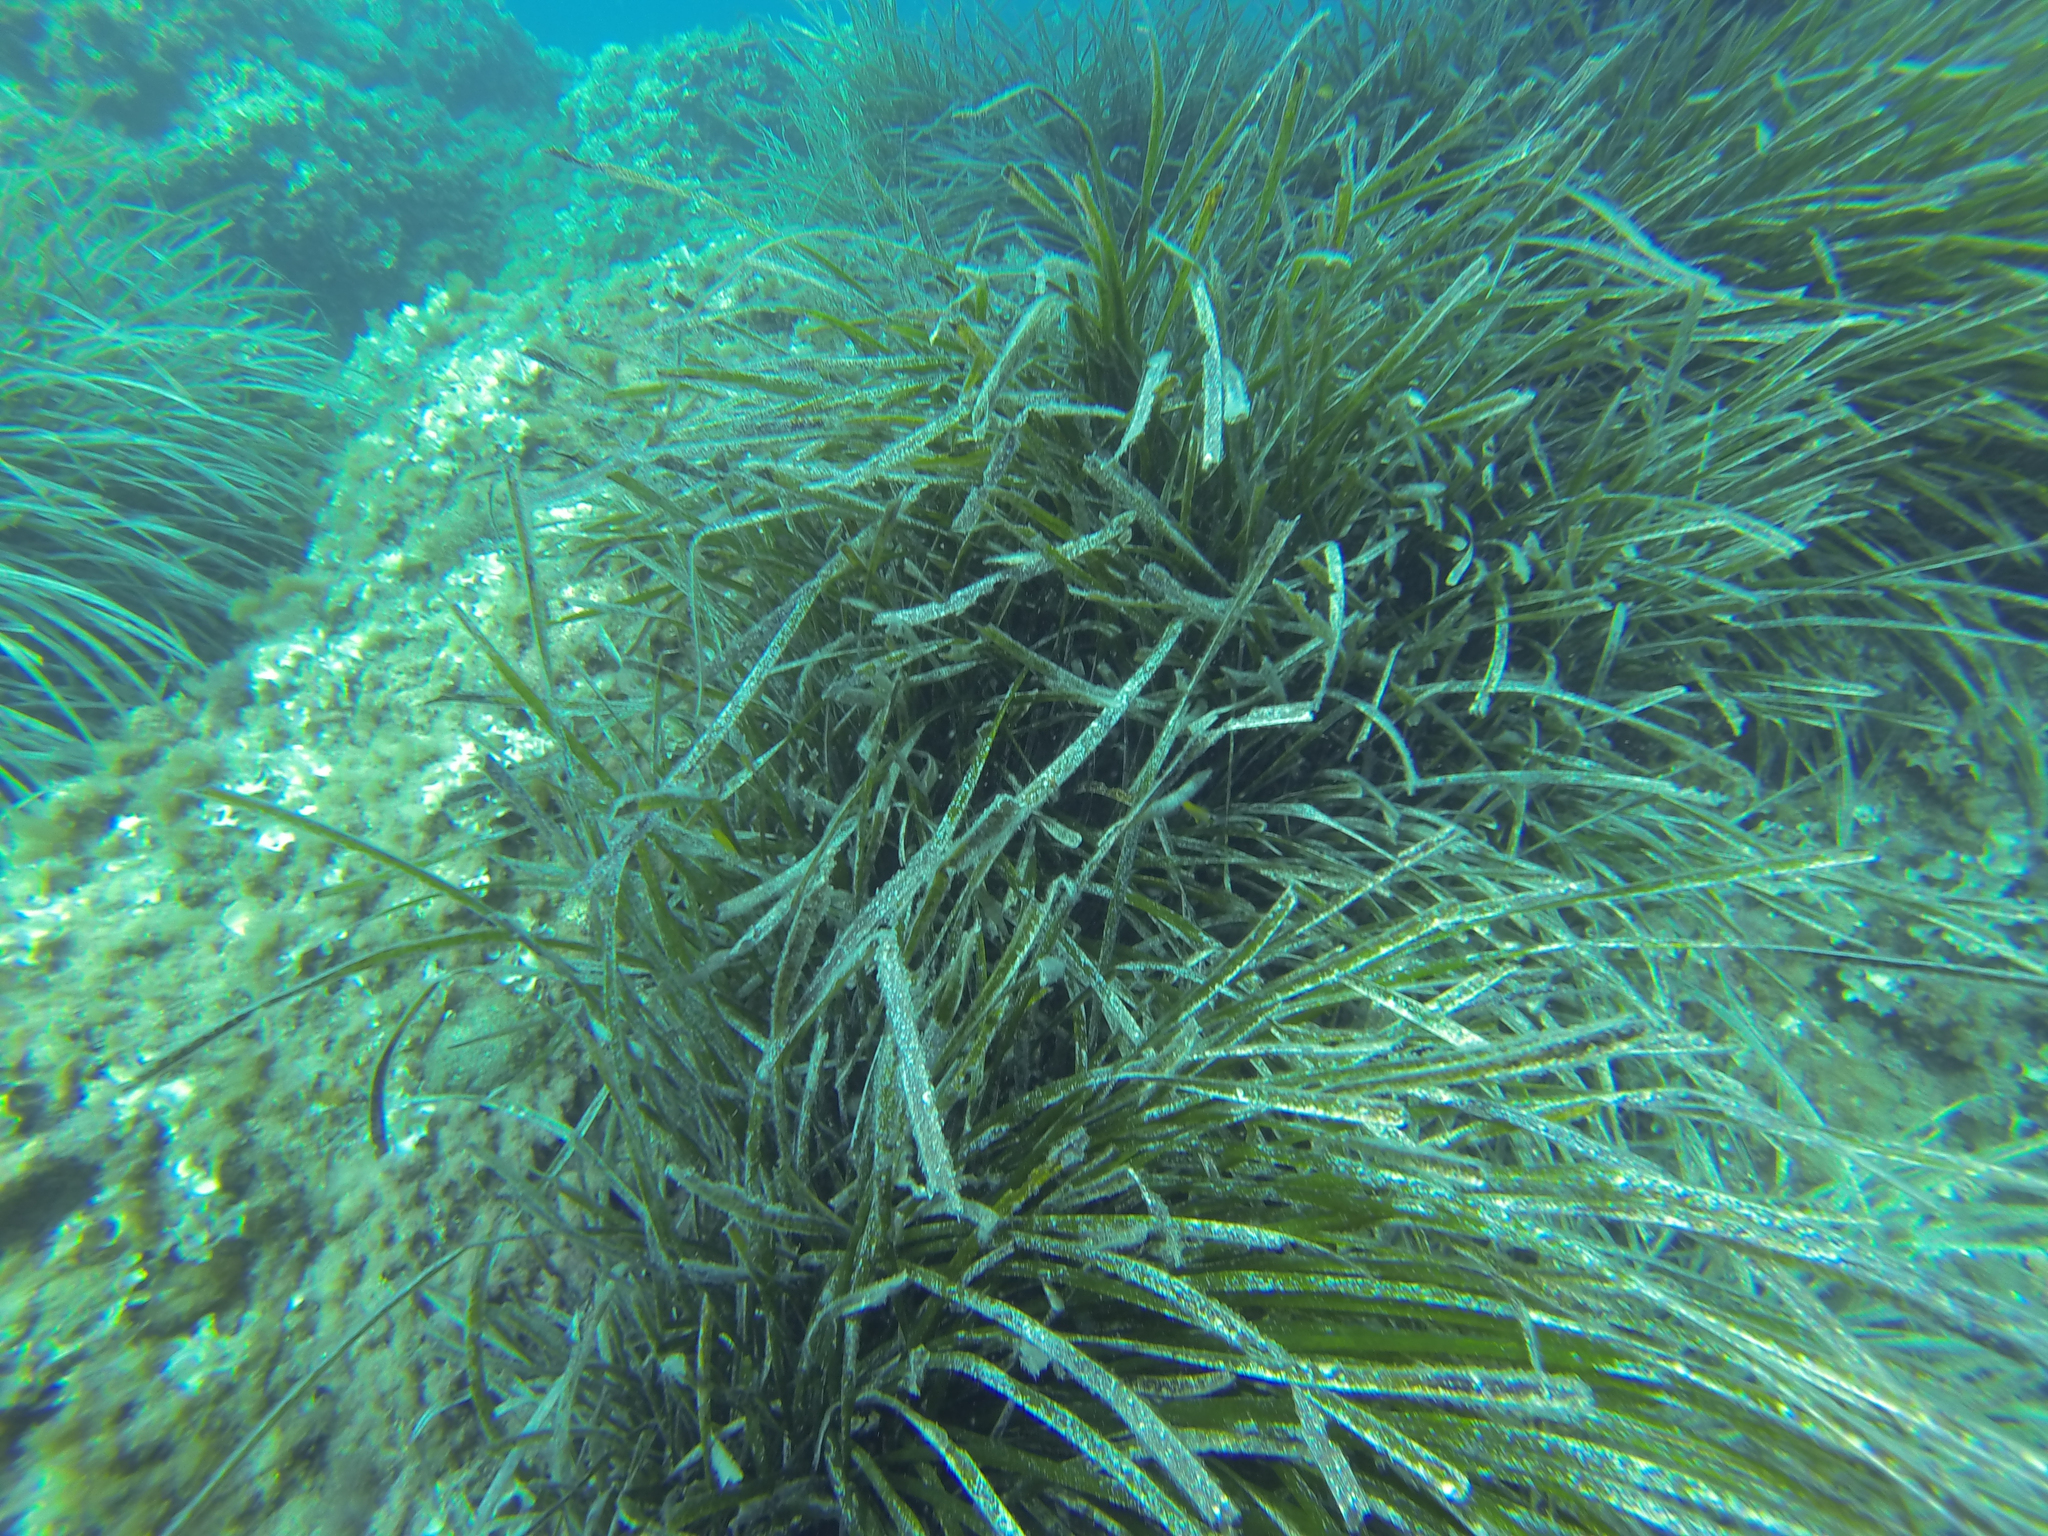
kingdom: Plantae
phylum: Tracheophyta
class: Liliopsida
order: Alismatales
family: Posidoniaceae
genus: Posidonia
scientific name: Posidonia oceanica
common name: Mediterranean tapeweed
